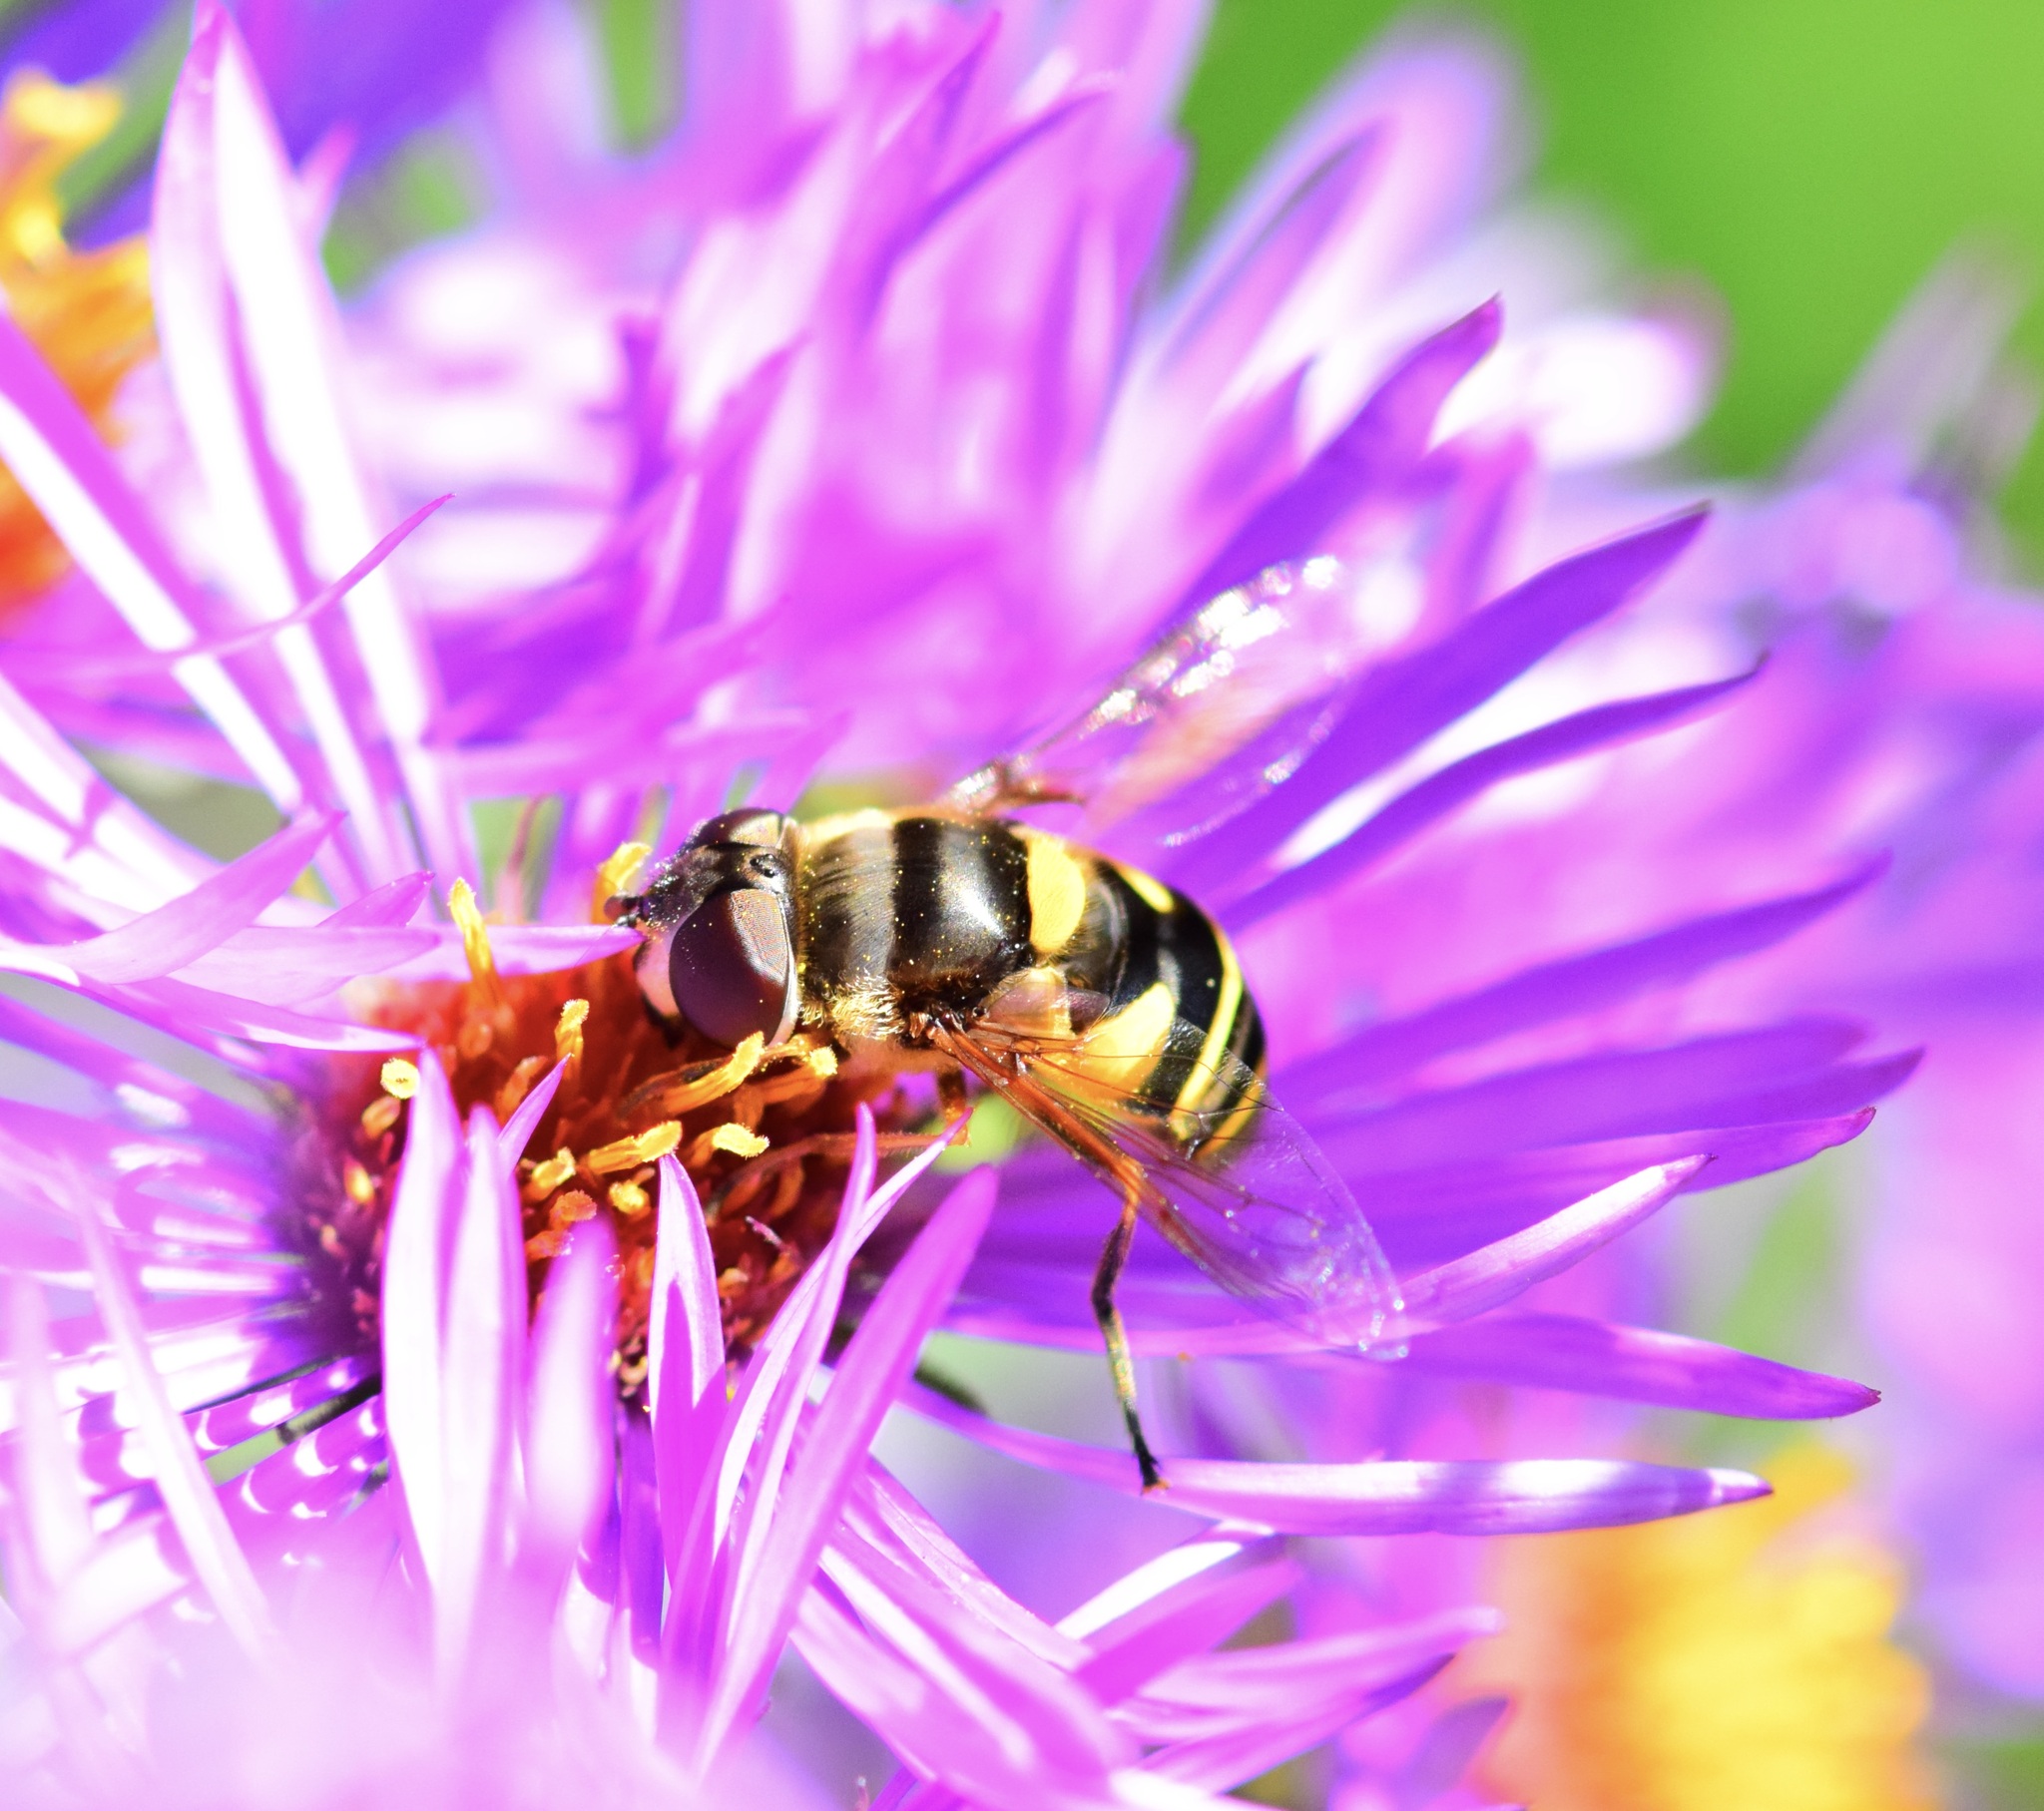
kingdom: Animalia
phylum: Arthropoda
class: Insecta
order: Diptera
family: Syrphidae
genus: Eristalis
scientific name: Eristalis transversa
